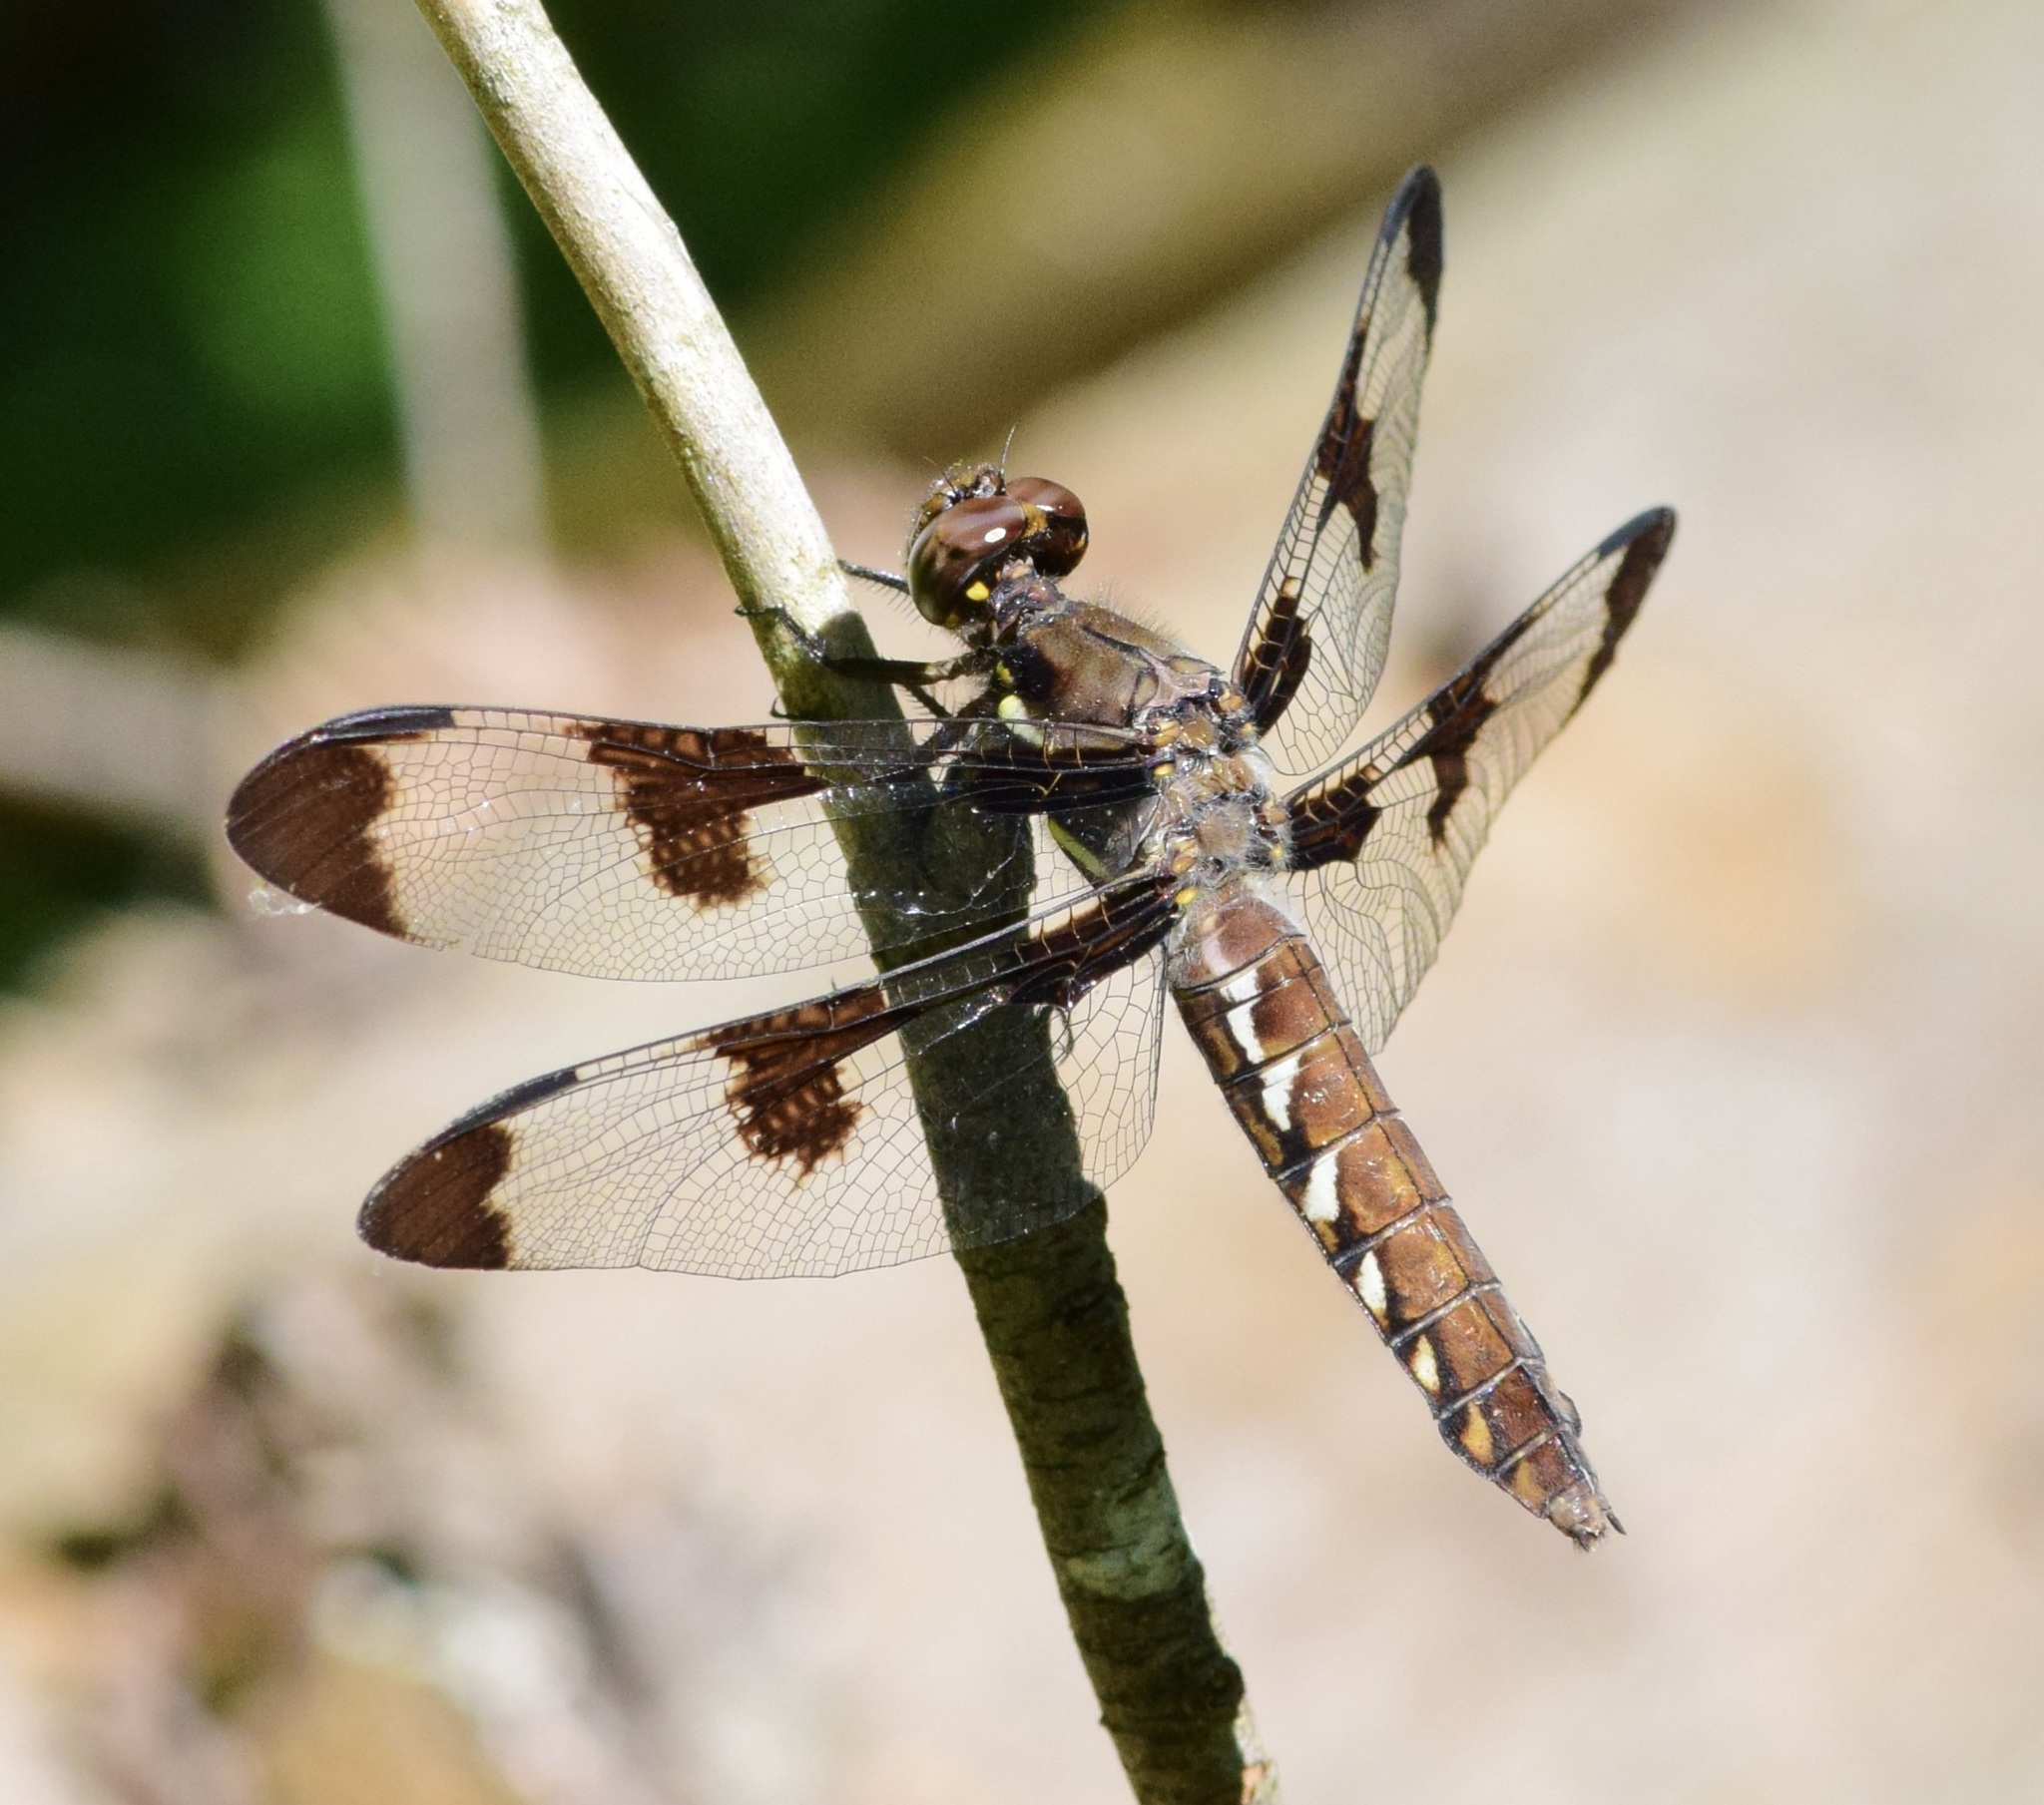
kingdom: Animalia
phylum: Arthropoda
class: Insecta
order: Odonata
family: Libellulidae
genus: Plathemis
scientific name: Plathemis lydia
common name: Common whitetail
